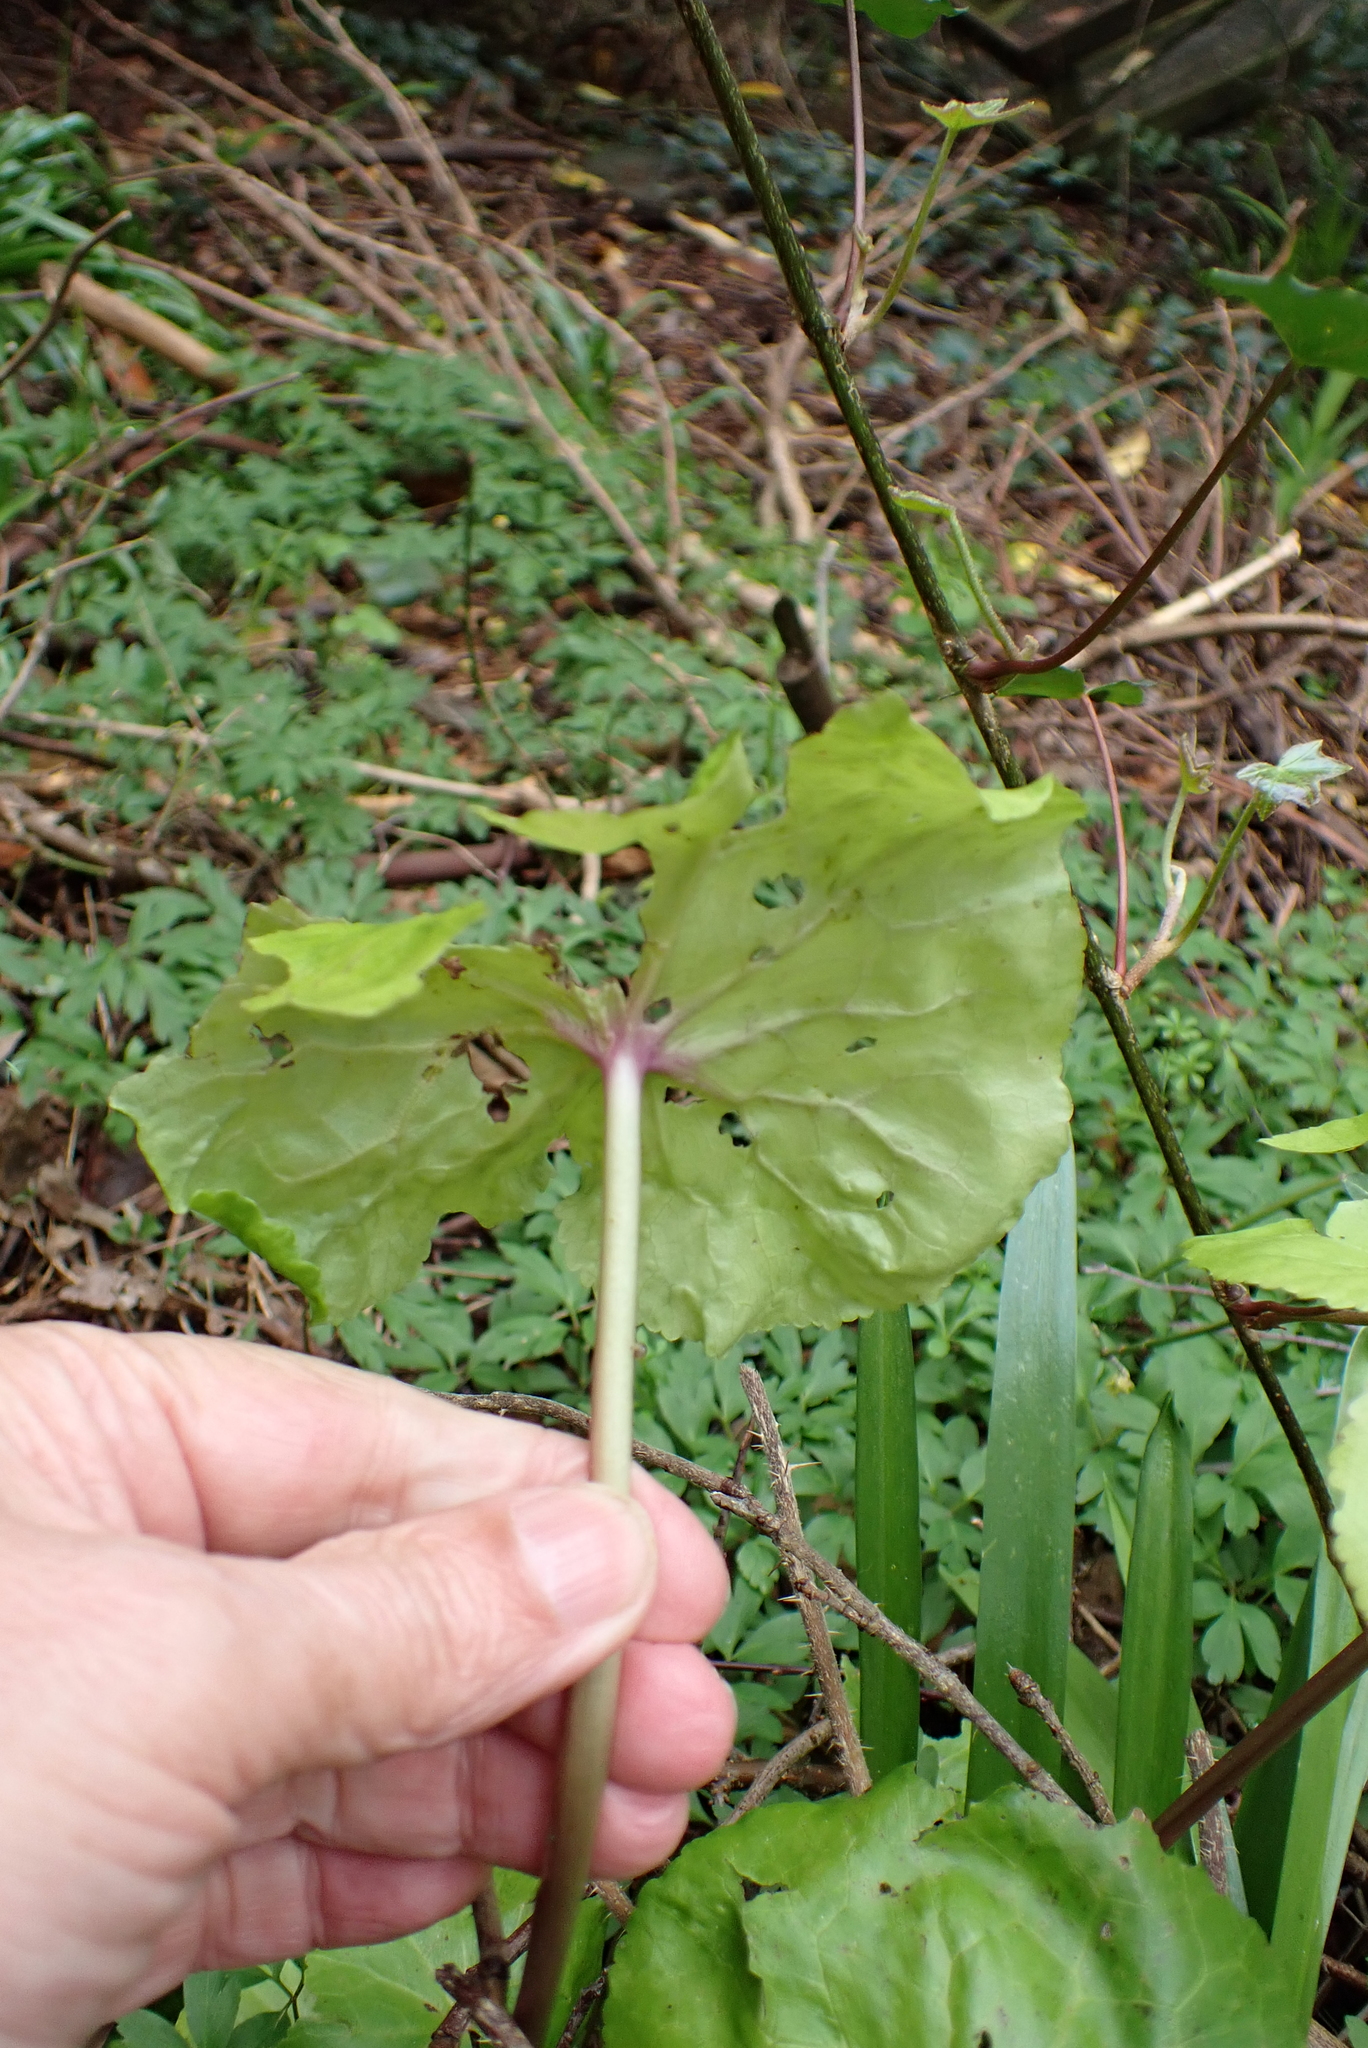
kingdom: Plantae
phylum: Tracheophyta
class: Magnoliopsida
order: Ranunculales
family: Ranunculaceae
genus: Caltha
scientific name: Caltha palustris
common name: Marsh marigold
